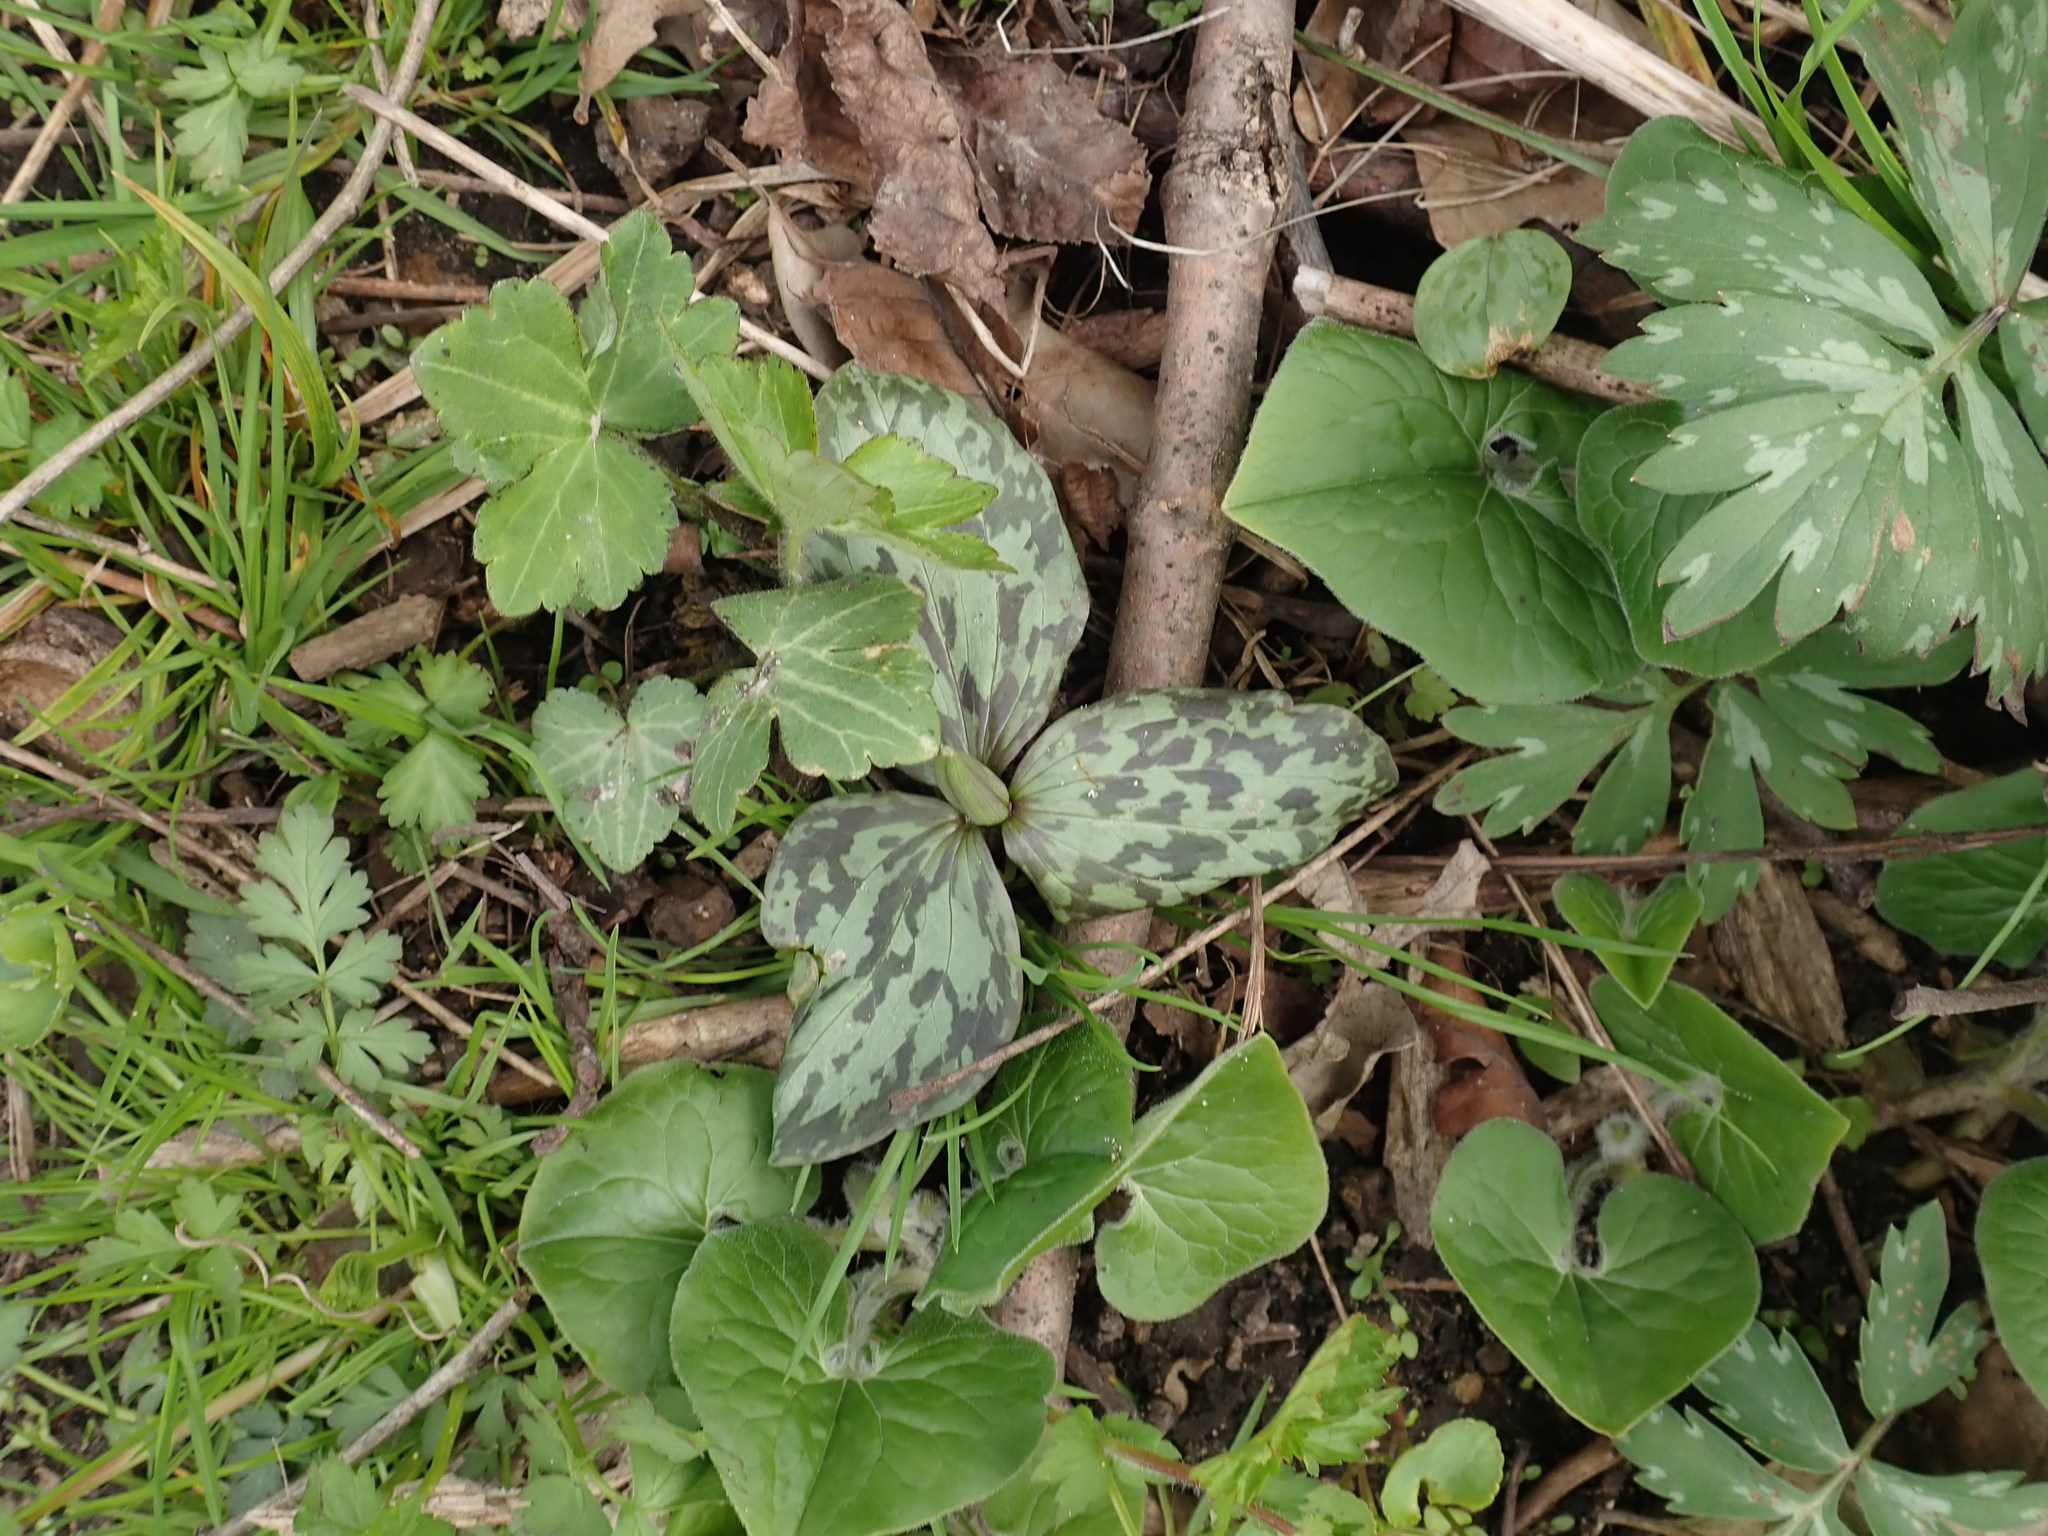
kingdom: Plantae
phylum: Tracheophyta
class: Liliopsida
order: Liliales
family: Melanthiaceae
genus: Trillium
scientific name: Trillium recurvatum
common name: Bloody butcher
